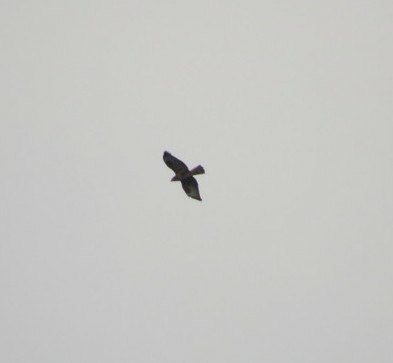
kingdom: Animalia
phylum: Chordata
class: Aves
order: Accipitriformes
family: Accipitridae
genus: Buteo
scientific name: Buteo buteo
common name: Common buzzard
